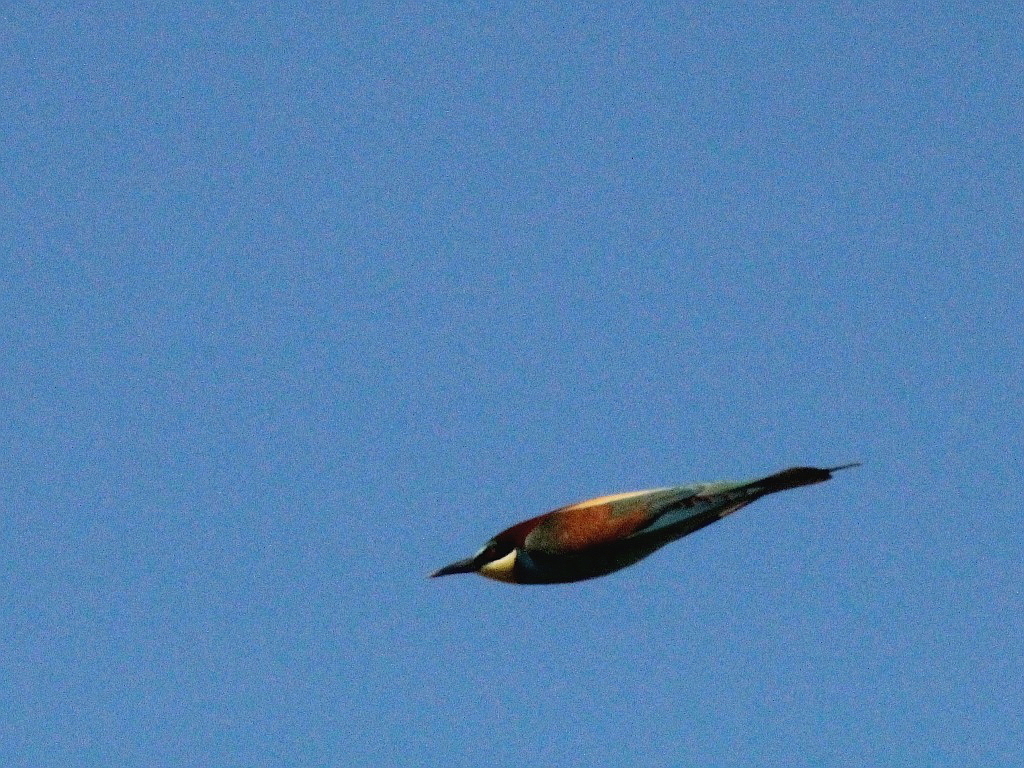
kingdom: Animalia
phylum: Chordata
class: Aves
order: Coraciiformes
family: Meropidae
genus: Merops
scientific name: Merops apiaster
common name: European bee-eater
